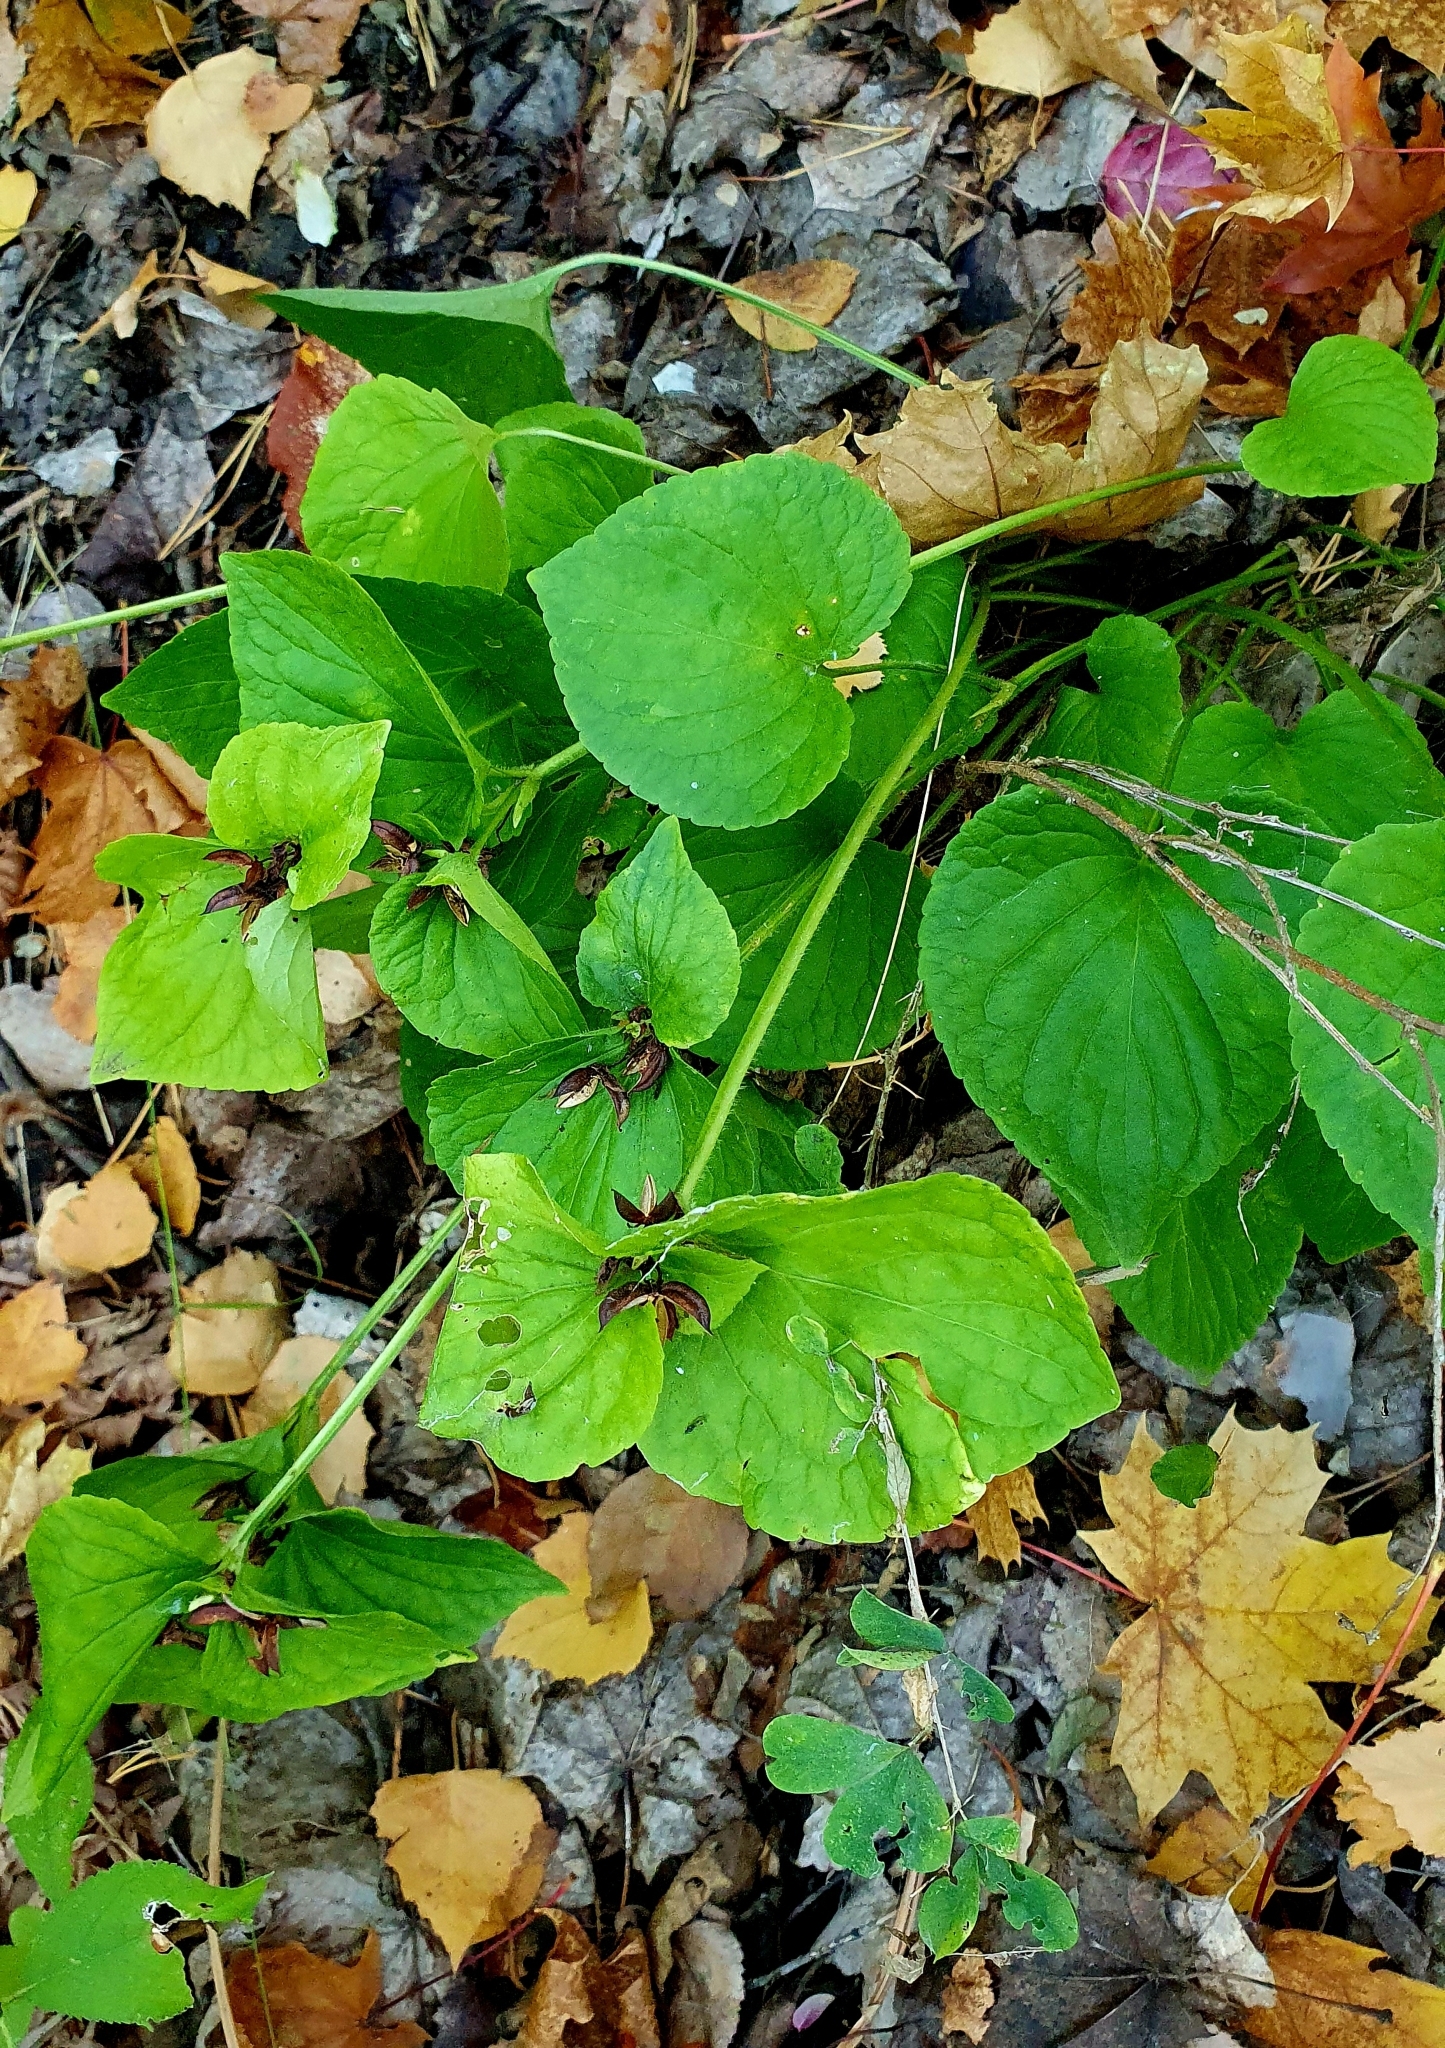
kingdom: Plantae
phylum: Tracheophyta
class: Magnoliopsida
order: Malpighiales
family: Violaceae
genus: Viola
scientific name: Viola mirabilis
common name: Wonder violet
